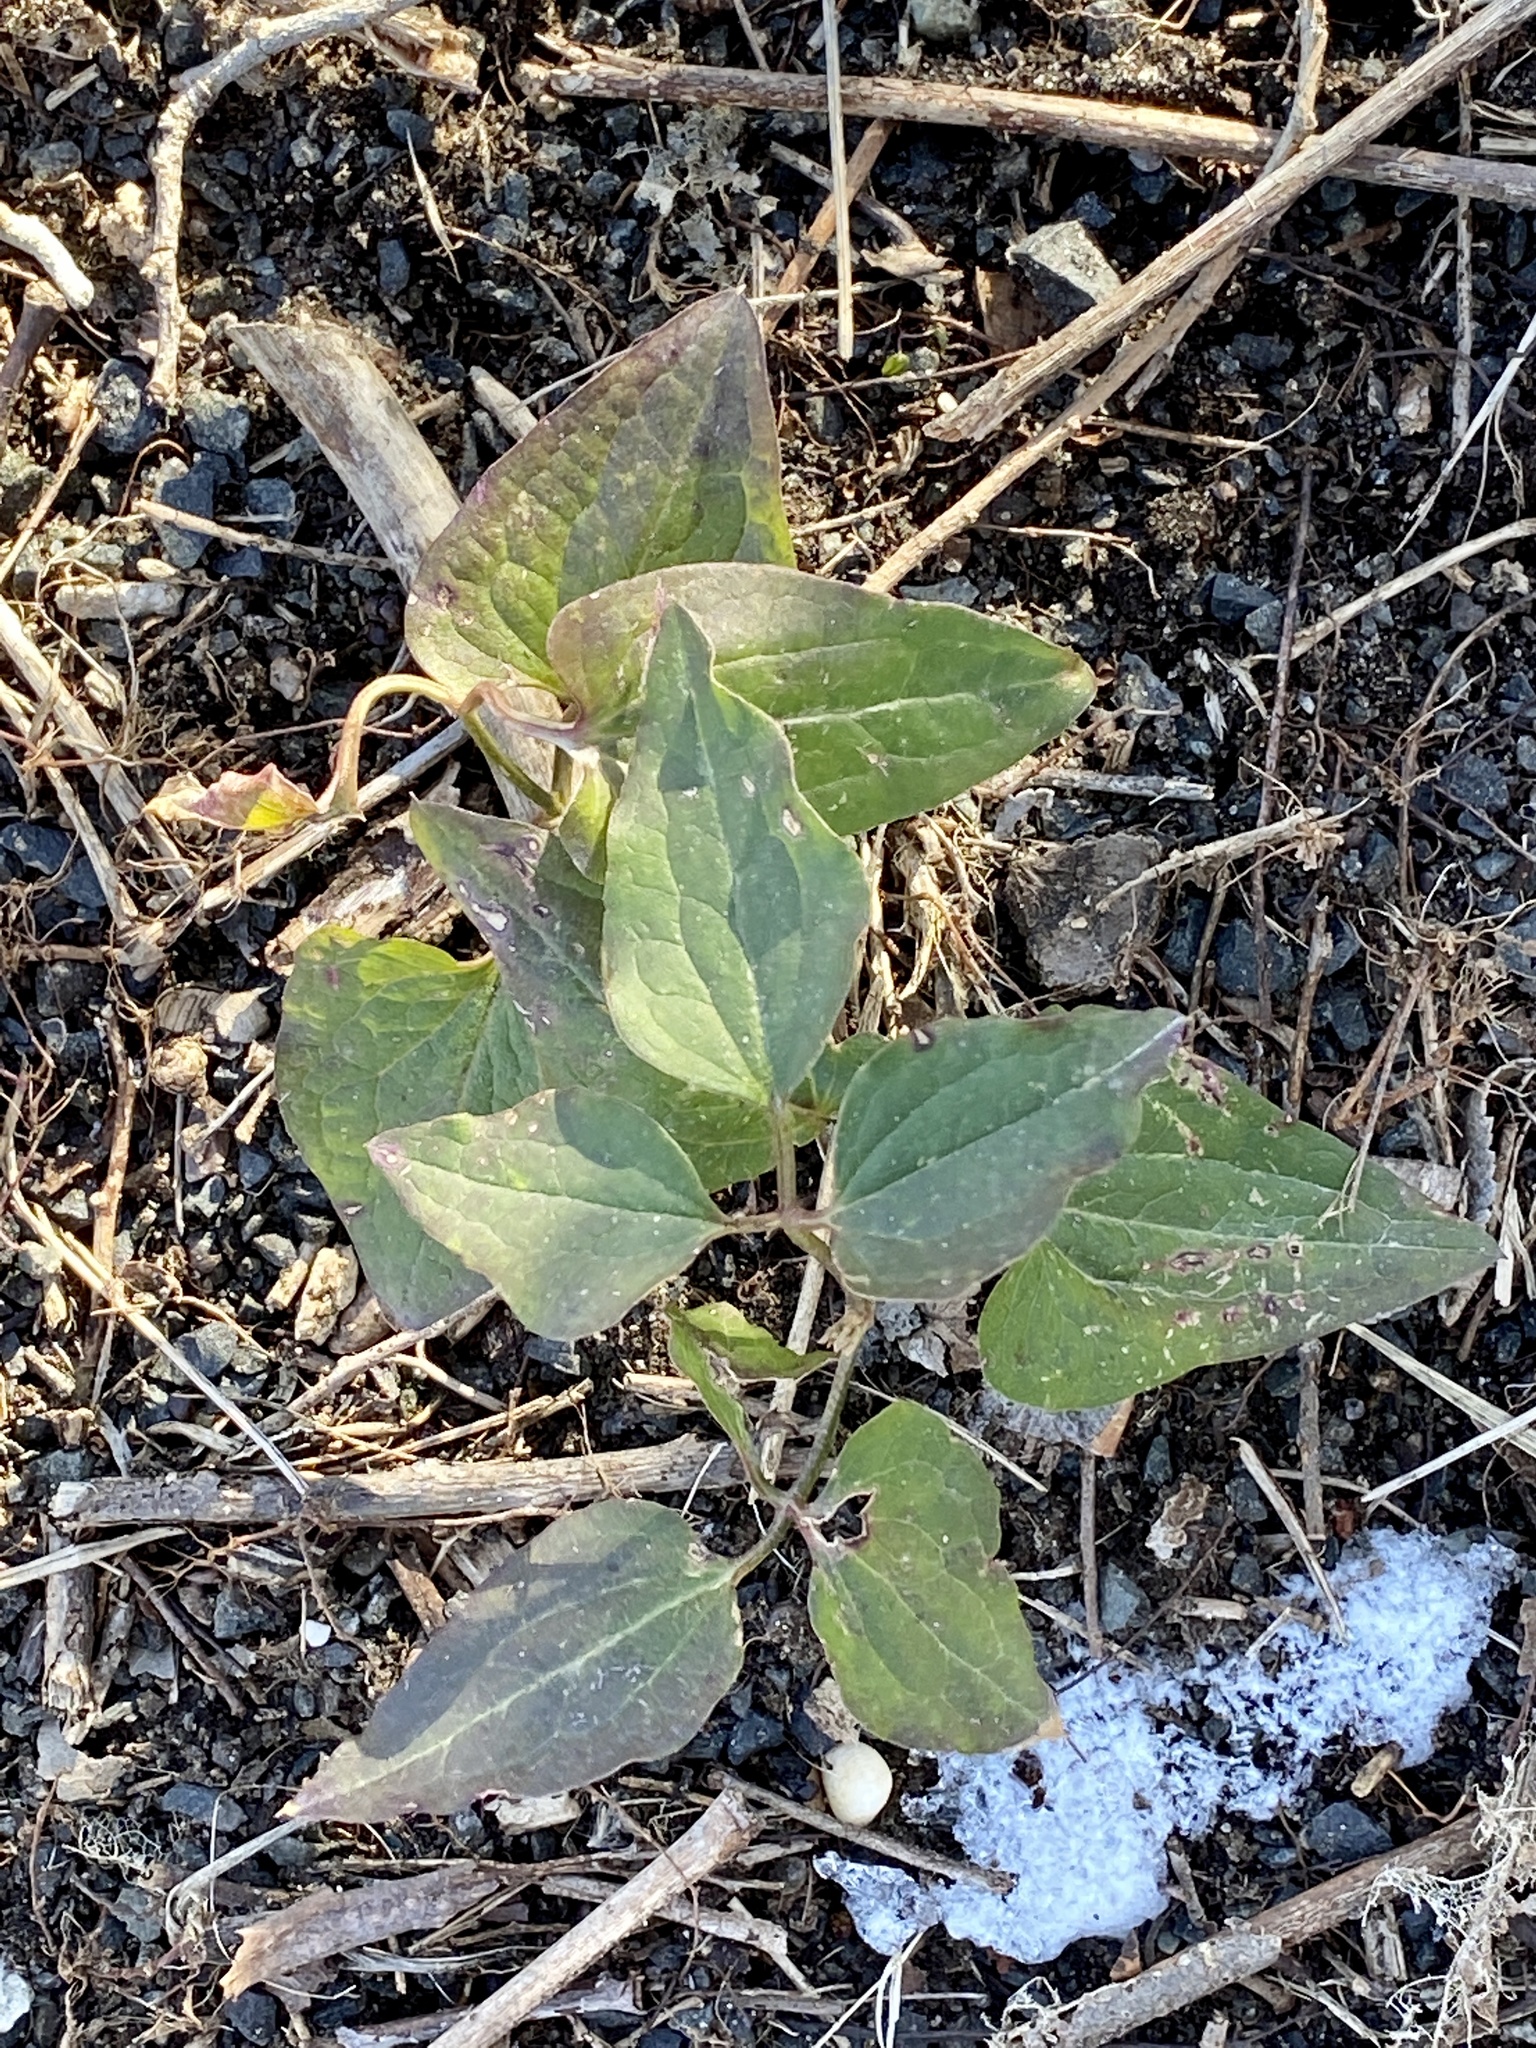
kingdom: Plantae
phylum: Tracheophyta
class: Magnoliopsida
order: Ranunculales
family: Ranunculaceae
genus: Clematis
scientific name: Clematis terniflora
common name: Sweet autumn clematis
